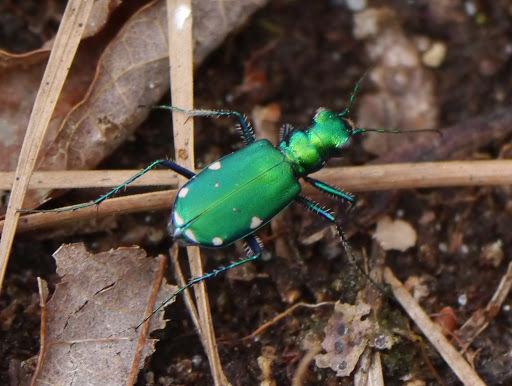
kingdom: Animalia
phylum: Arthropoda
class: Insecta
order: Coleoptera
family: Carabidae
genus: Cicindela
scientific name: Cicindela sexguttata
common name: Six-spotted tiger beetle
